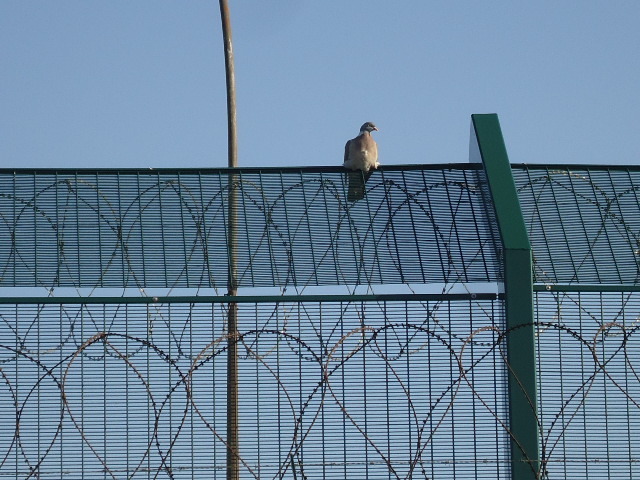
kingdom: Animalia
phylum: Chordata
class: Aves
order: Columbiformes
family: Columbidae
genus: Columba
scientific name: Columba palumbus
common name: Common wood pigeon
